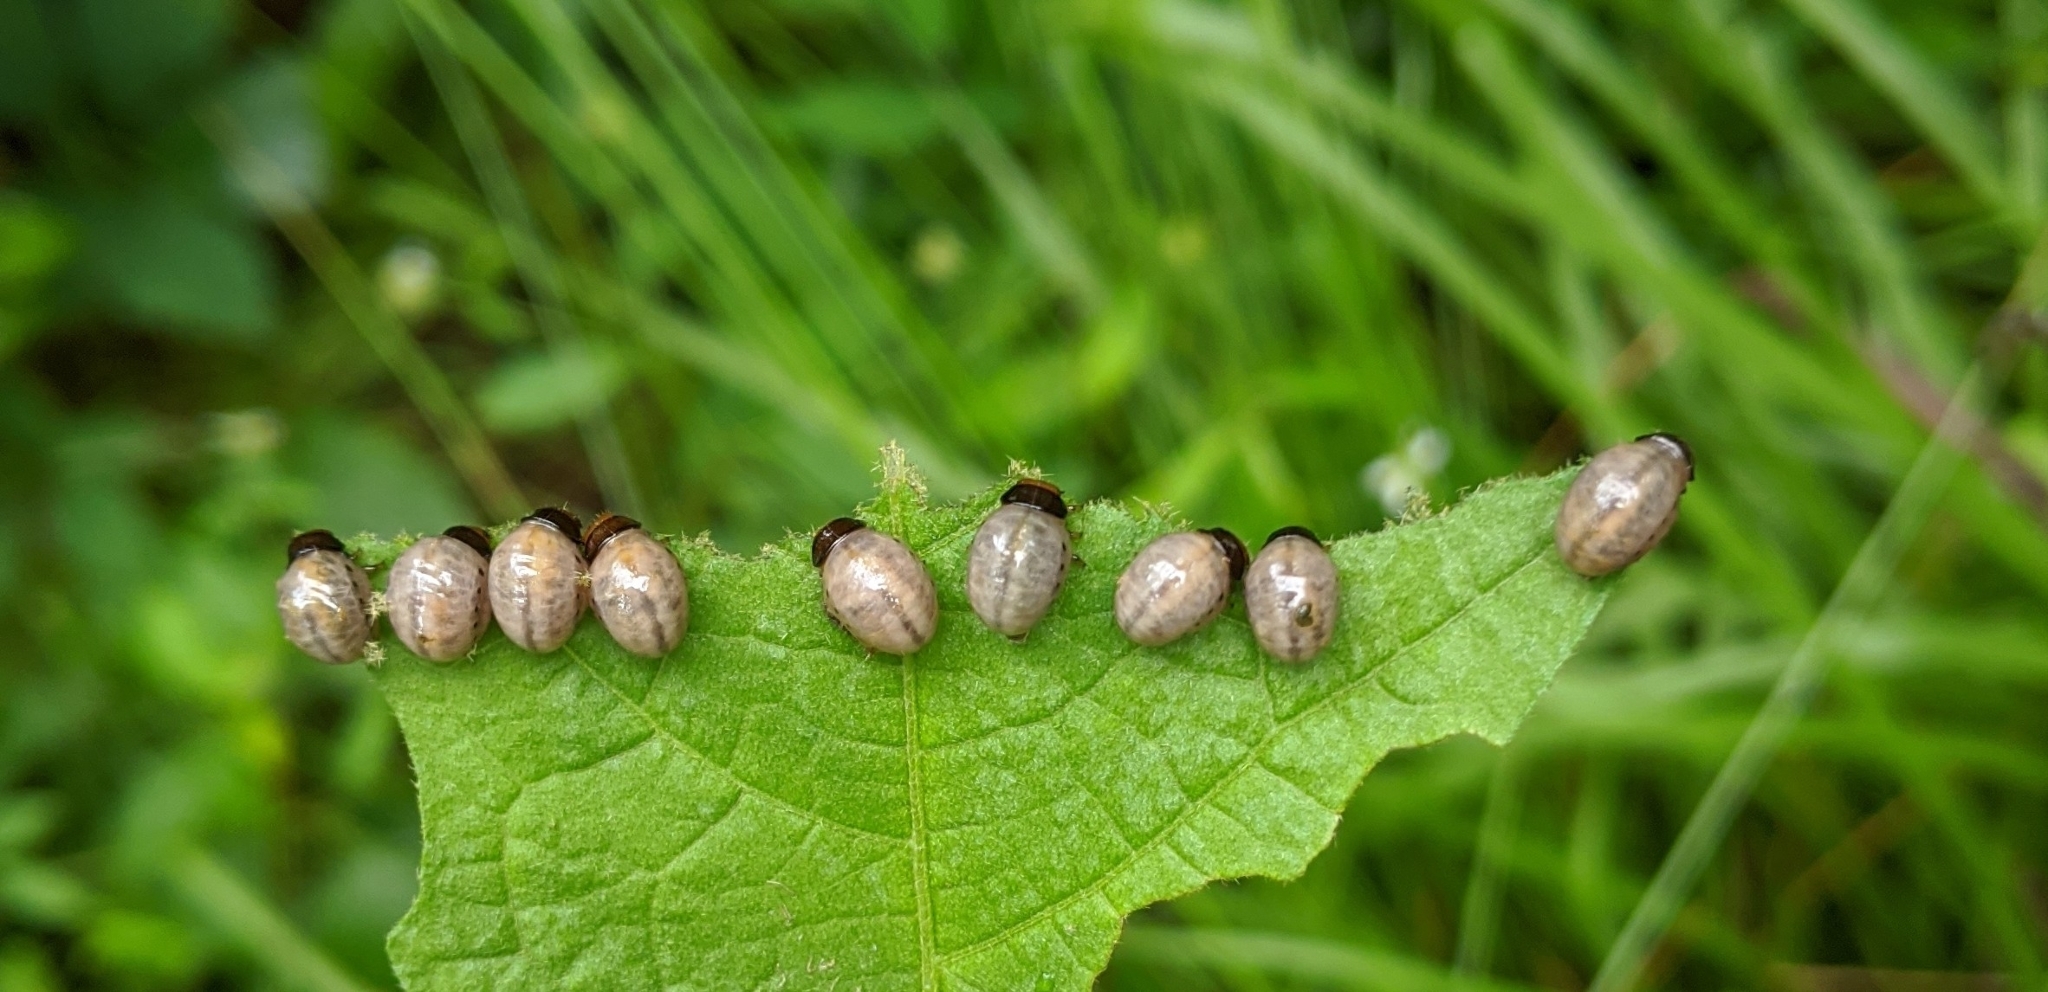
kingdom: Animalia
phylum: Arthropoda
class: Insecta
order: Coleoptera
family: Chrysomelidae
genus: Leptinotarsa
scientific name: Leptinotarsa juncta
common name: False potato beetle
